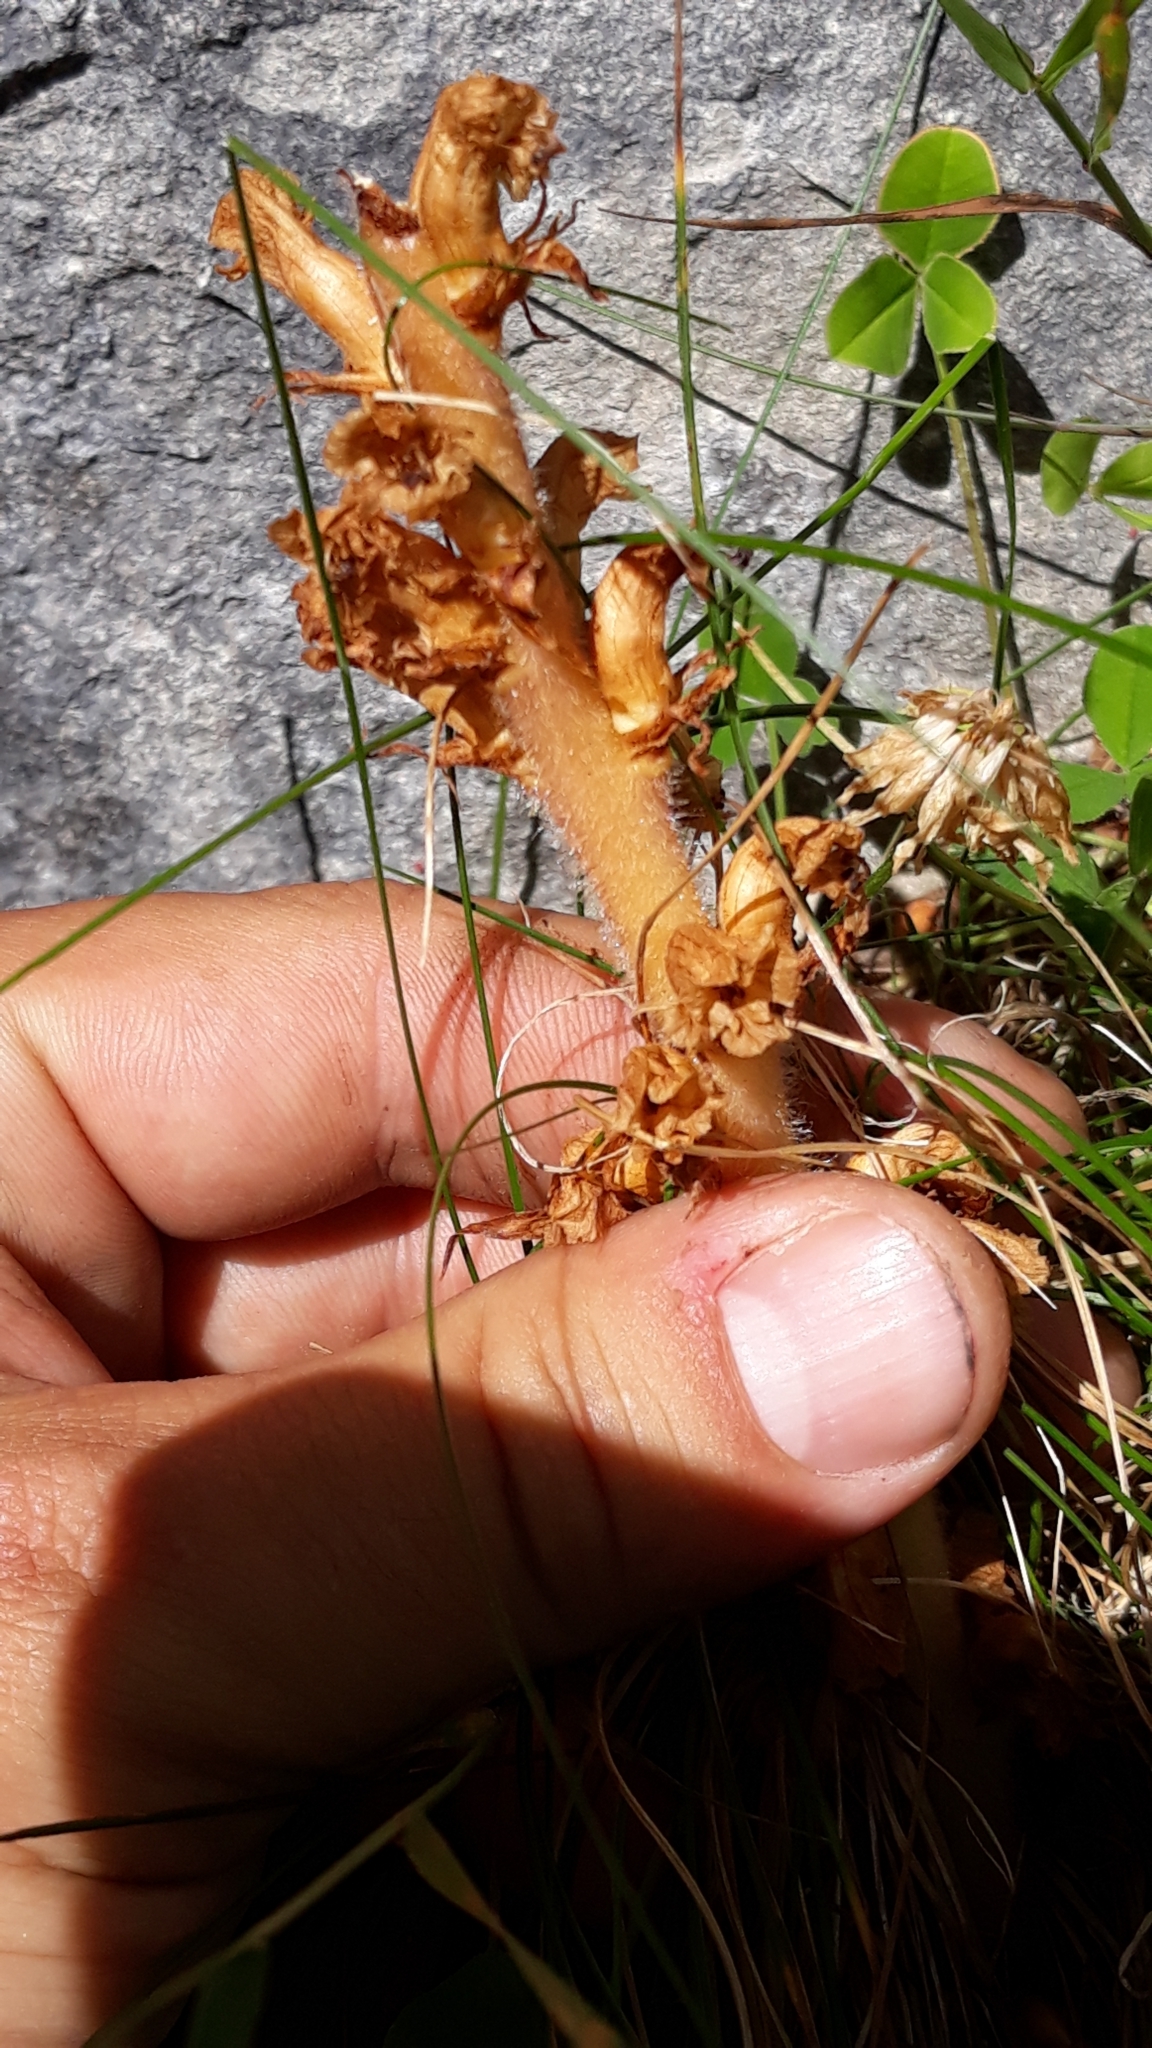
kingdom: Plantae
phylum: Tracheophyta
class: Magnoliopsida
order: Lamiales
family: Orobanchaceae
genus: Orobanche
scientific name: Orobanche minor
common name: Common broomrape
